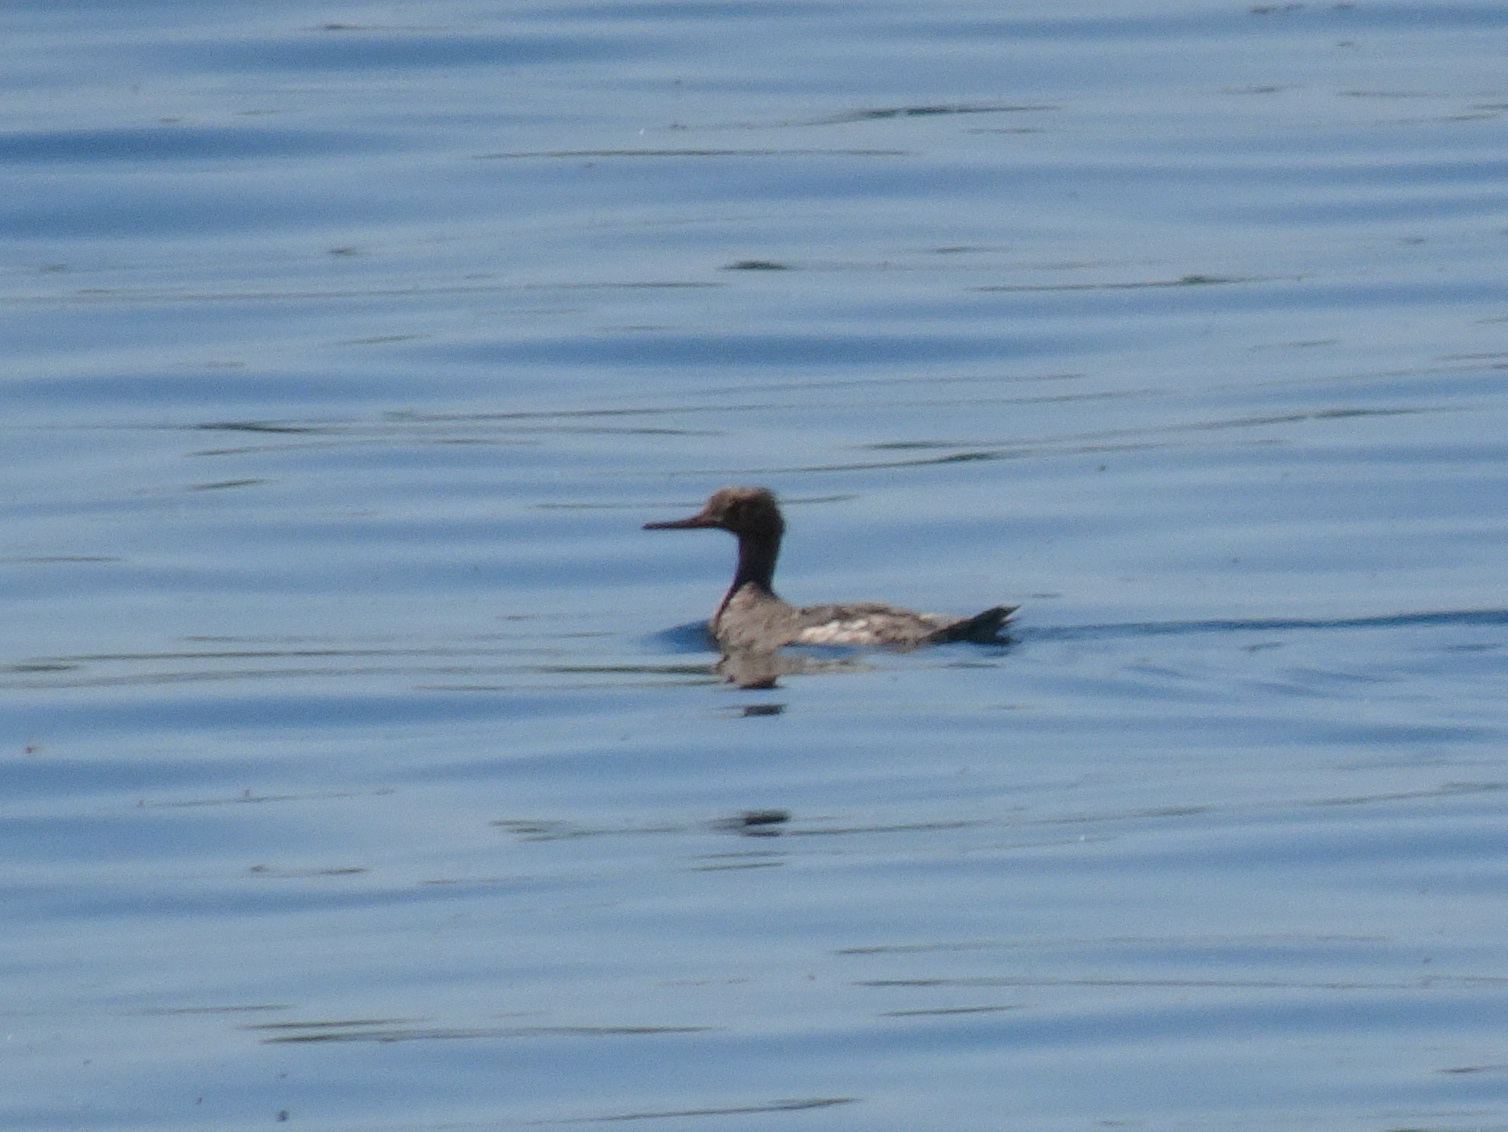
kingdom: Animalia
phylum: Chordata
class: Aves
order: Anseriformes
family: Anatidae
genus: Mergus
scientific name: Mergus serrator
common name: Red-breasted merganser
